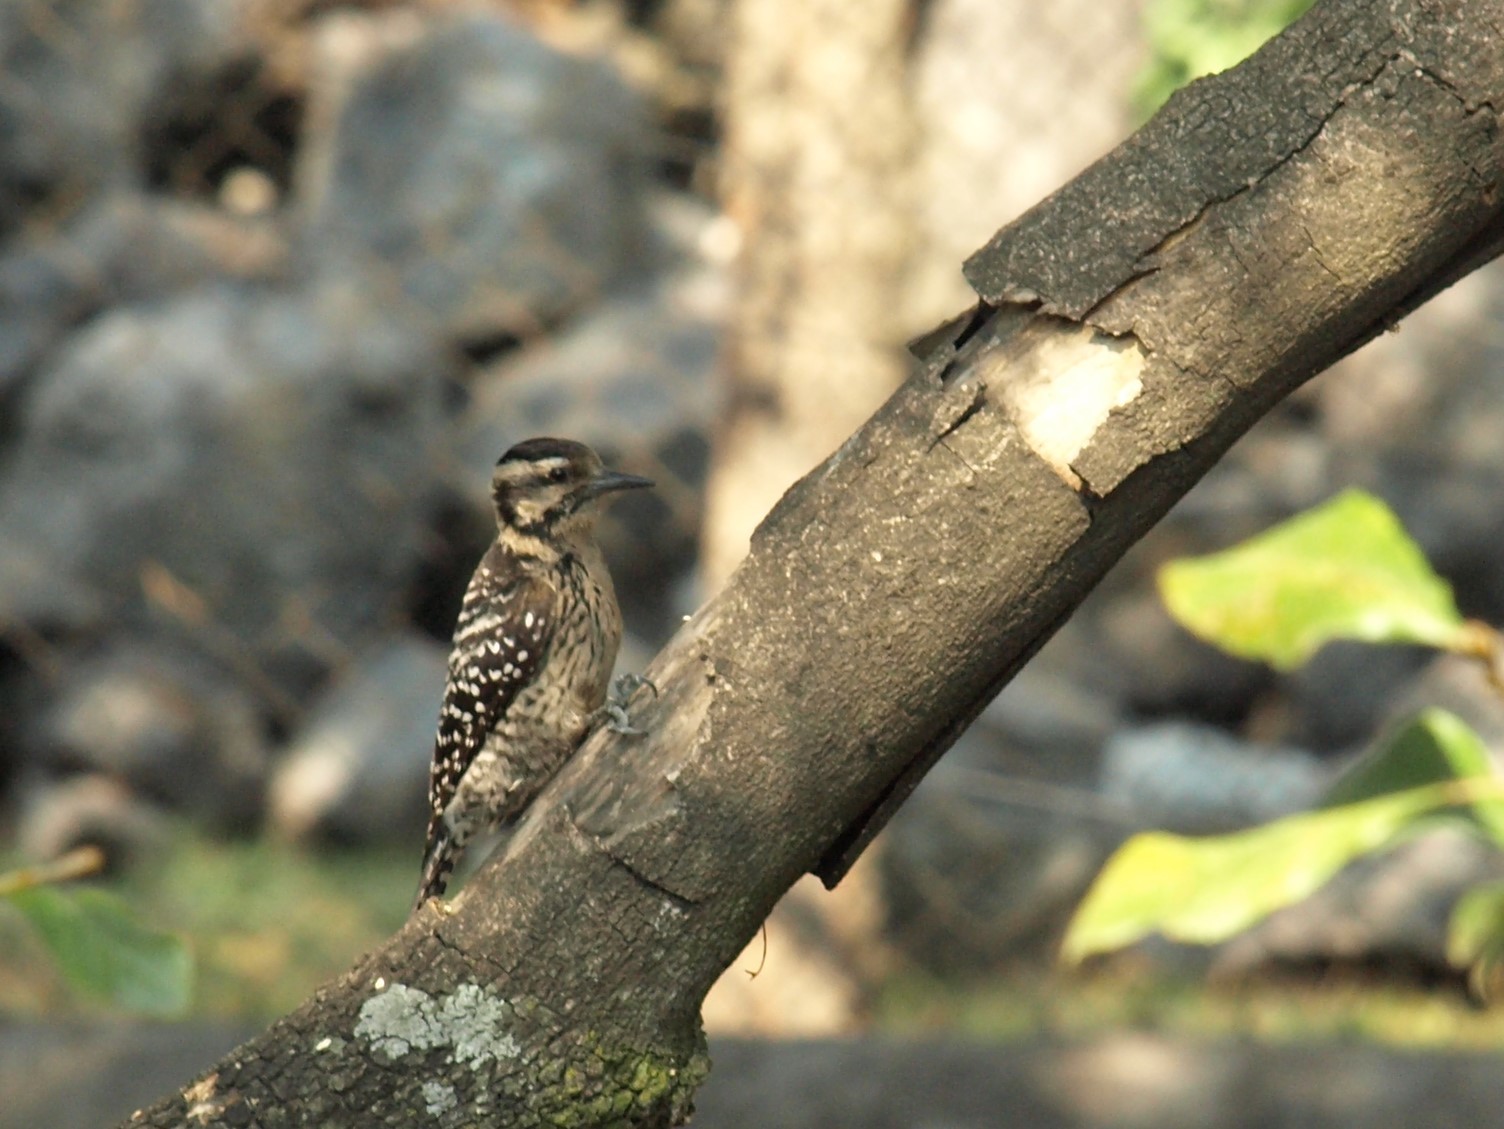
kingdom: Animalia
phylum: Chordata
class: Aves
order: Piciformes
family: Picidae
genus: Dryobates
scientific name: Dryobates scalaris
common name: Ladder-backed woodpecker
